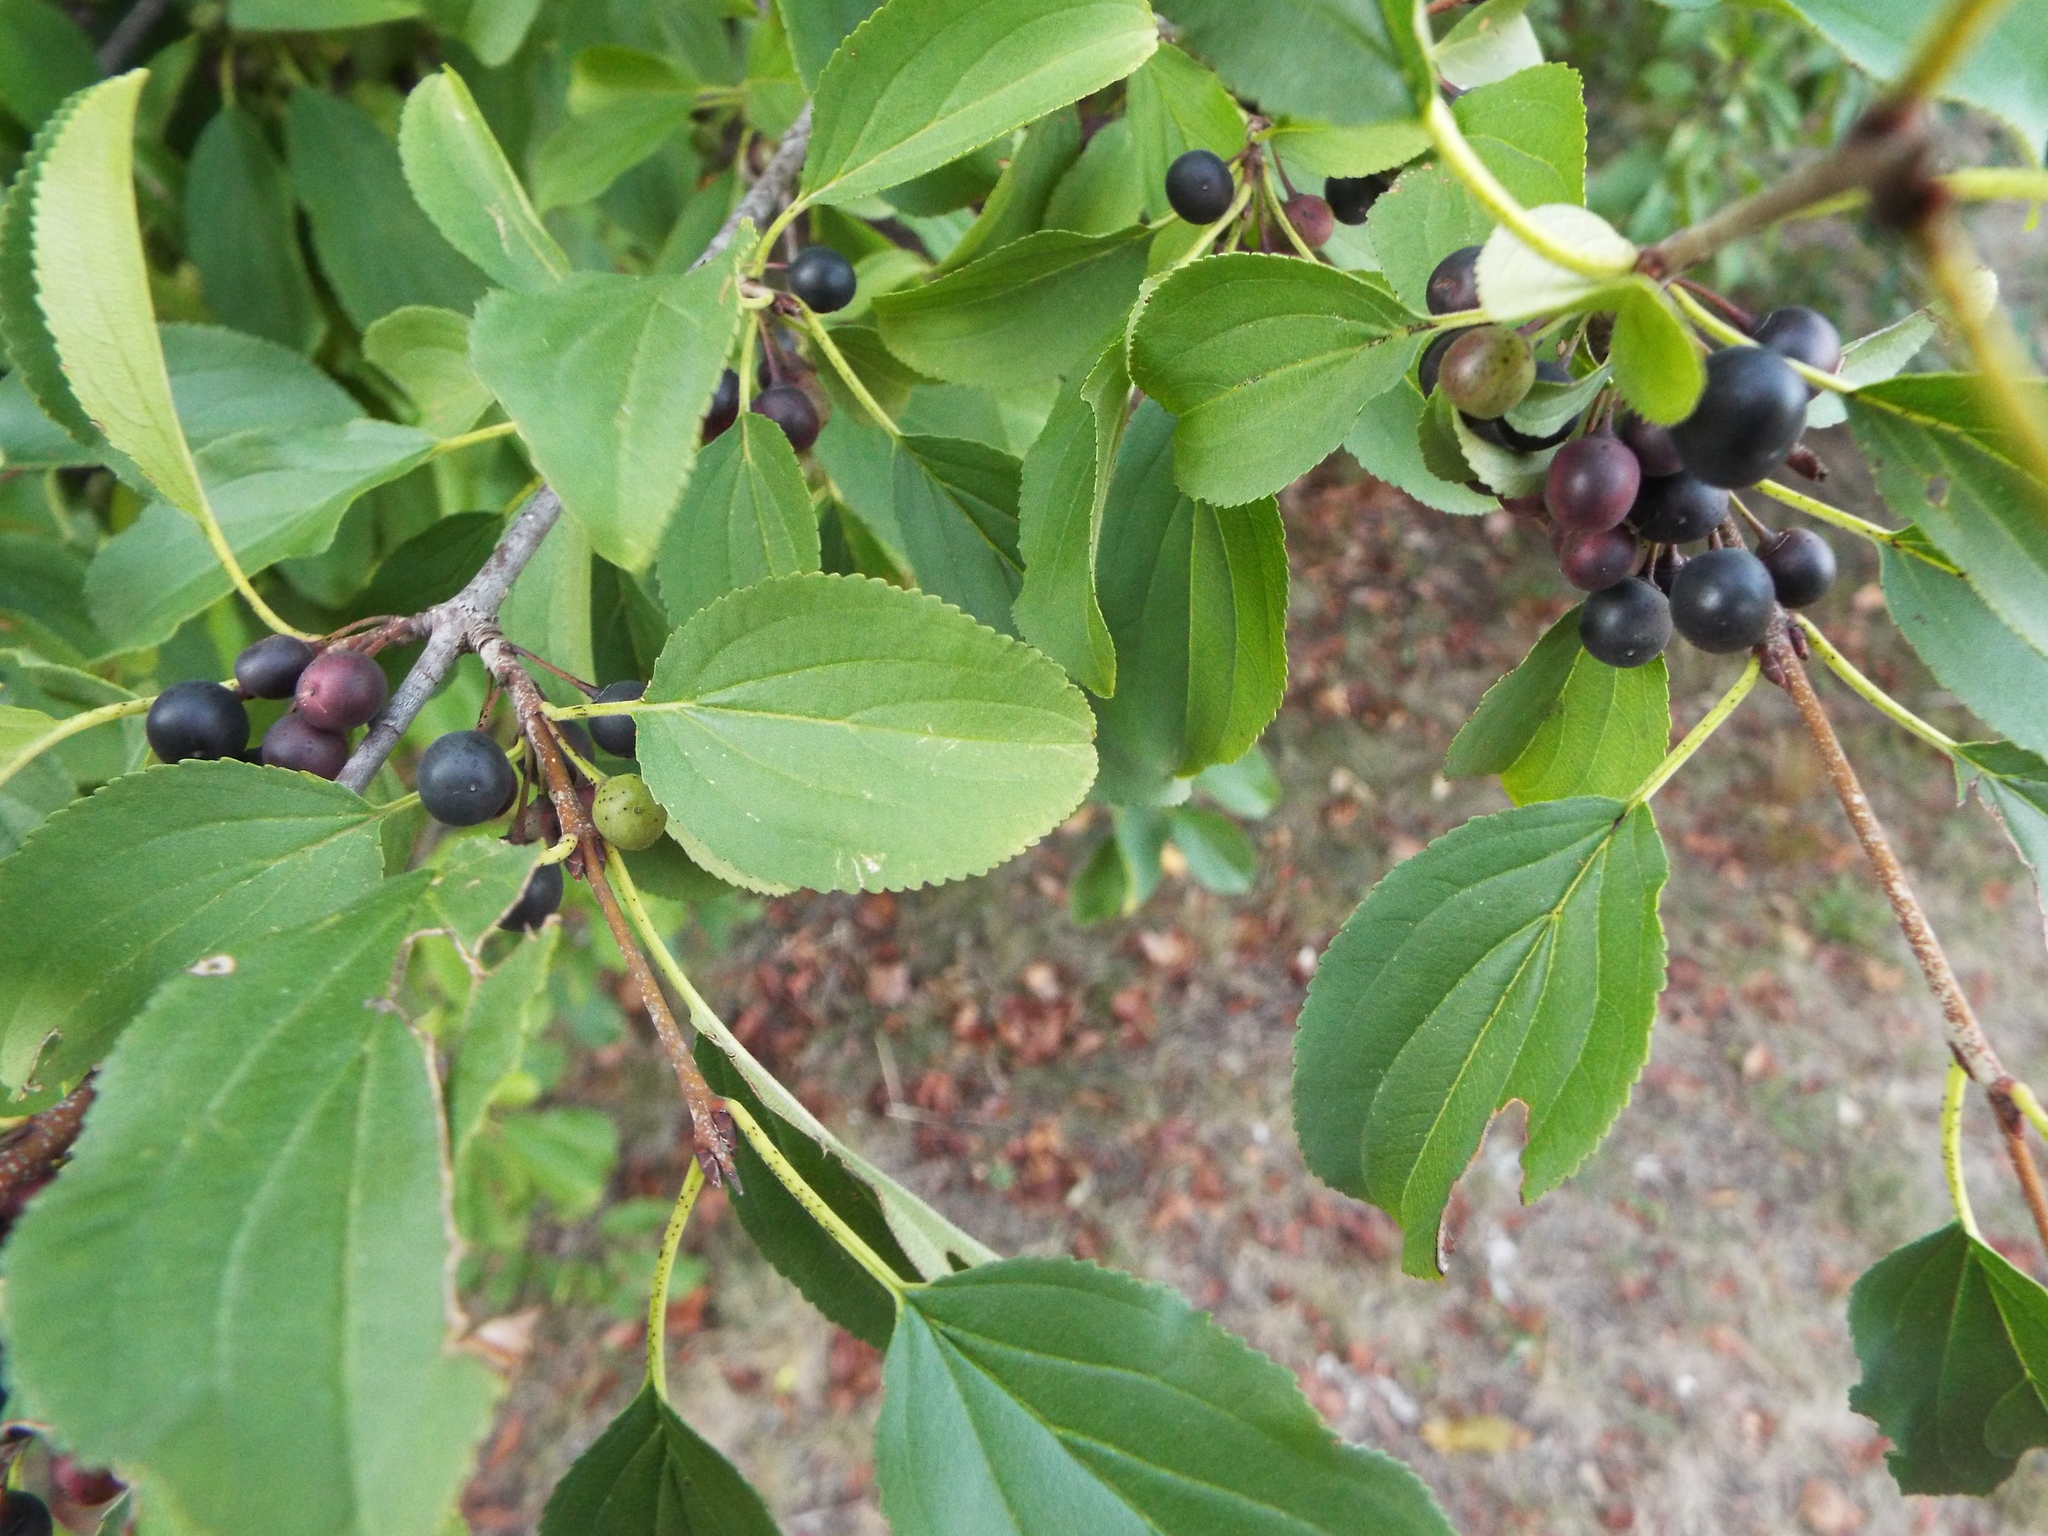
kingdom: Plantae
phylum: Tracheophyta
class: Magnoliopsida
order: Rosales
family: Rhamnaceae
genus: Rhamnus
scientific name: Rhamnus cathartica
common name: Common buckthorn
